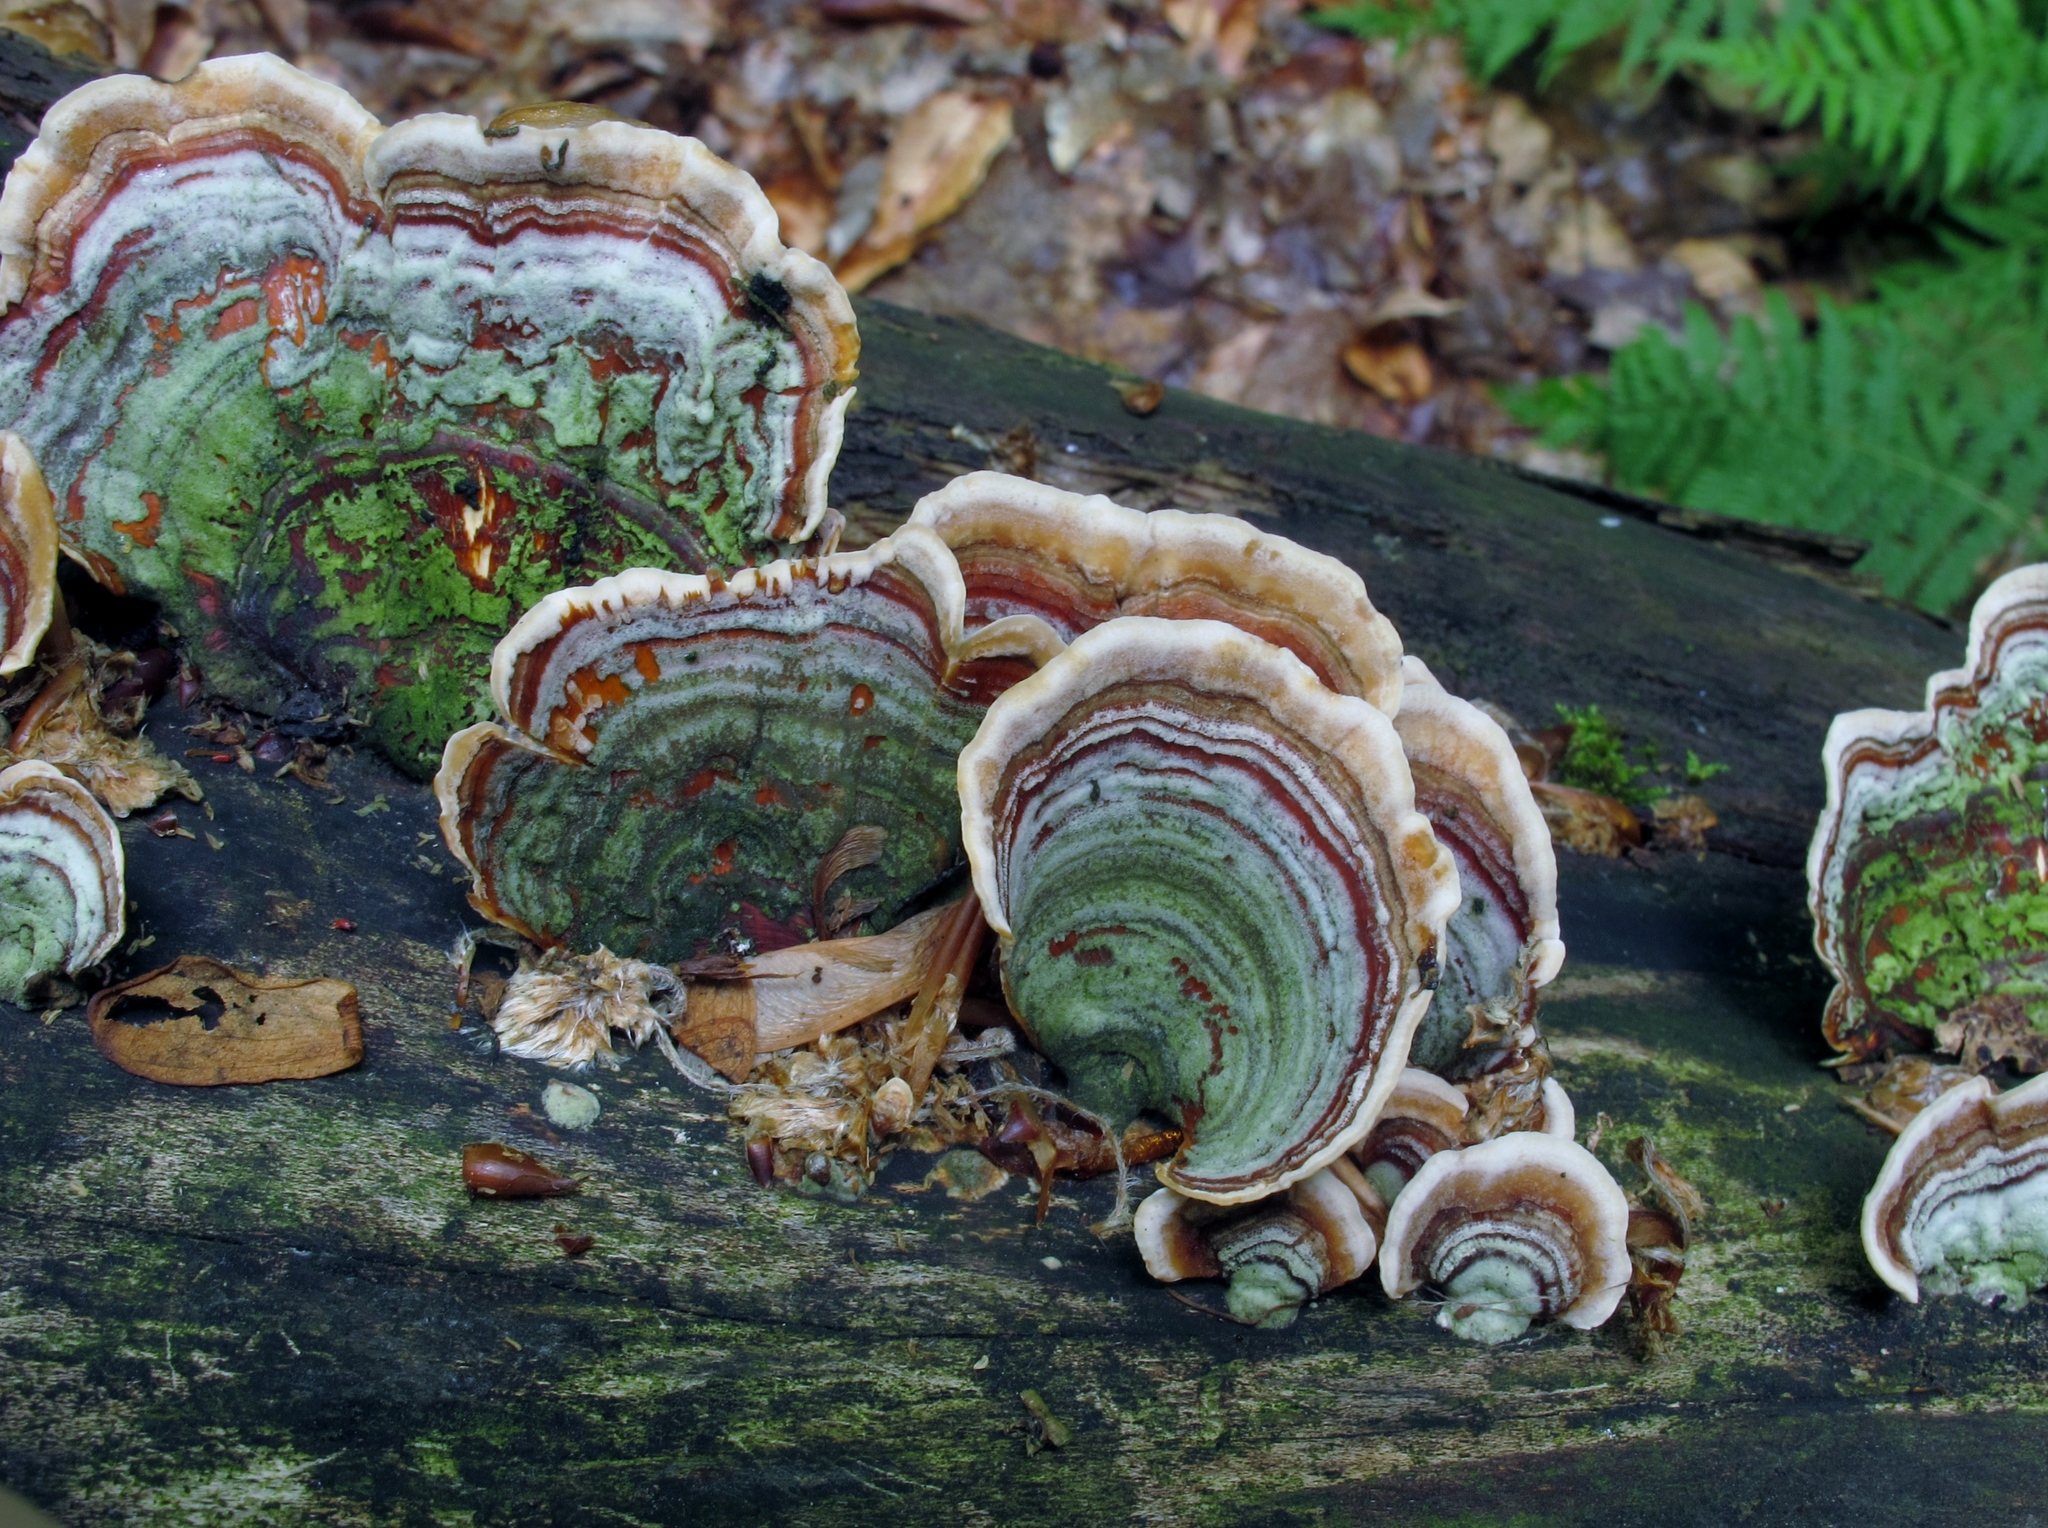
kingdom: Fungi
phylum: Basidiomycota
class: Agaricomycetes
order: Russulales
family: Stereaceae
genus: Stereum
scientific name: Stereum ostrea
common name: False turkeytail
